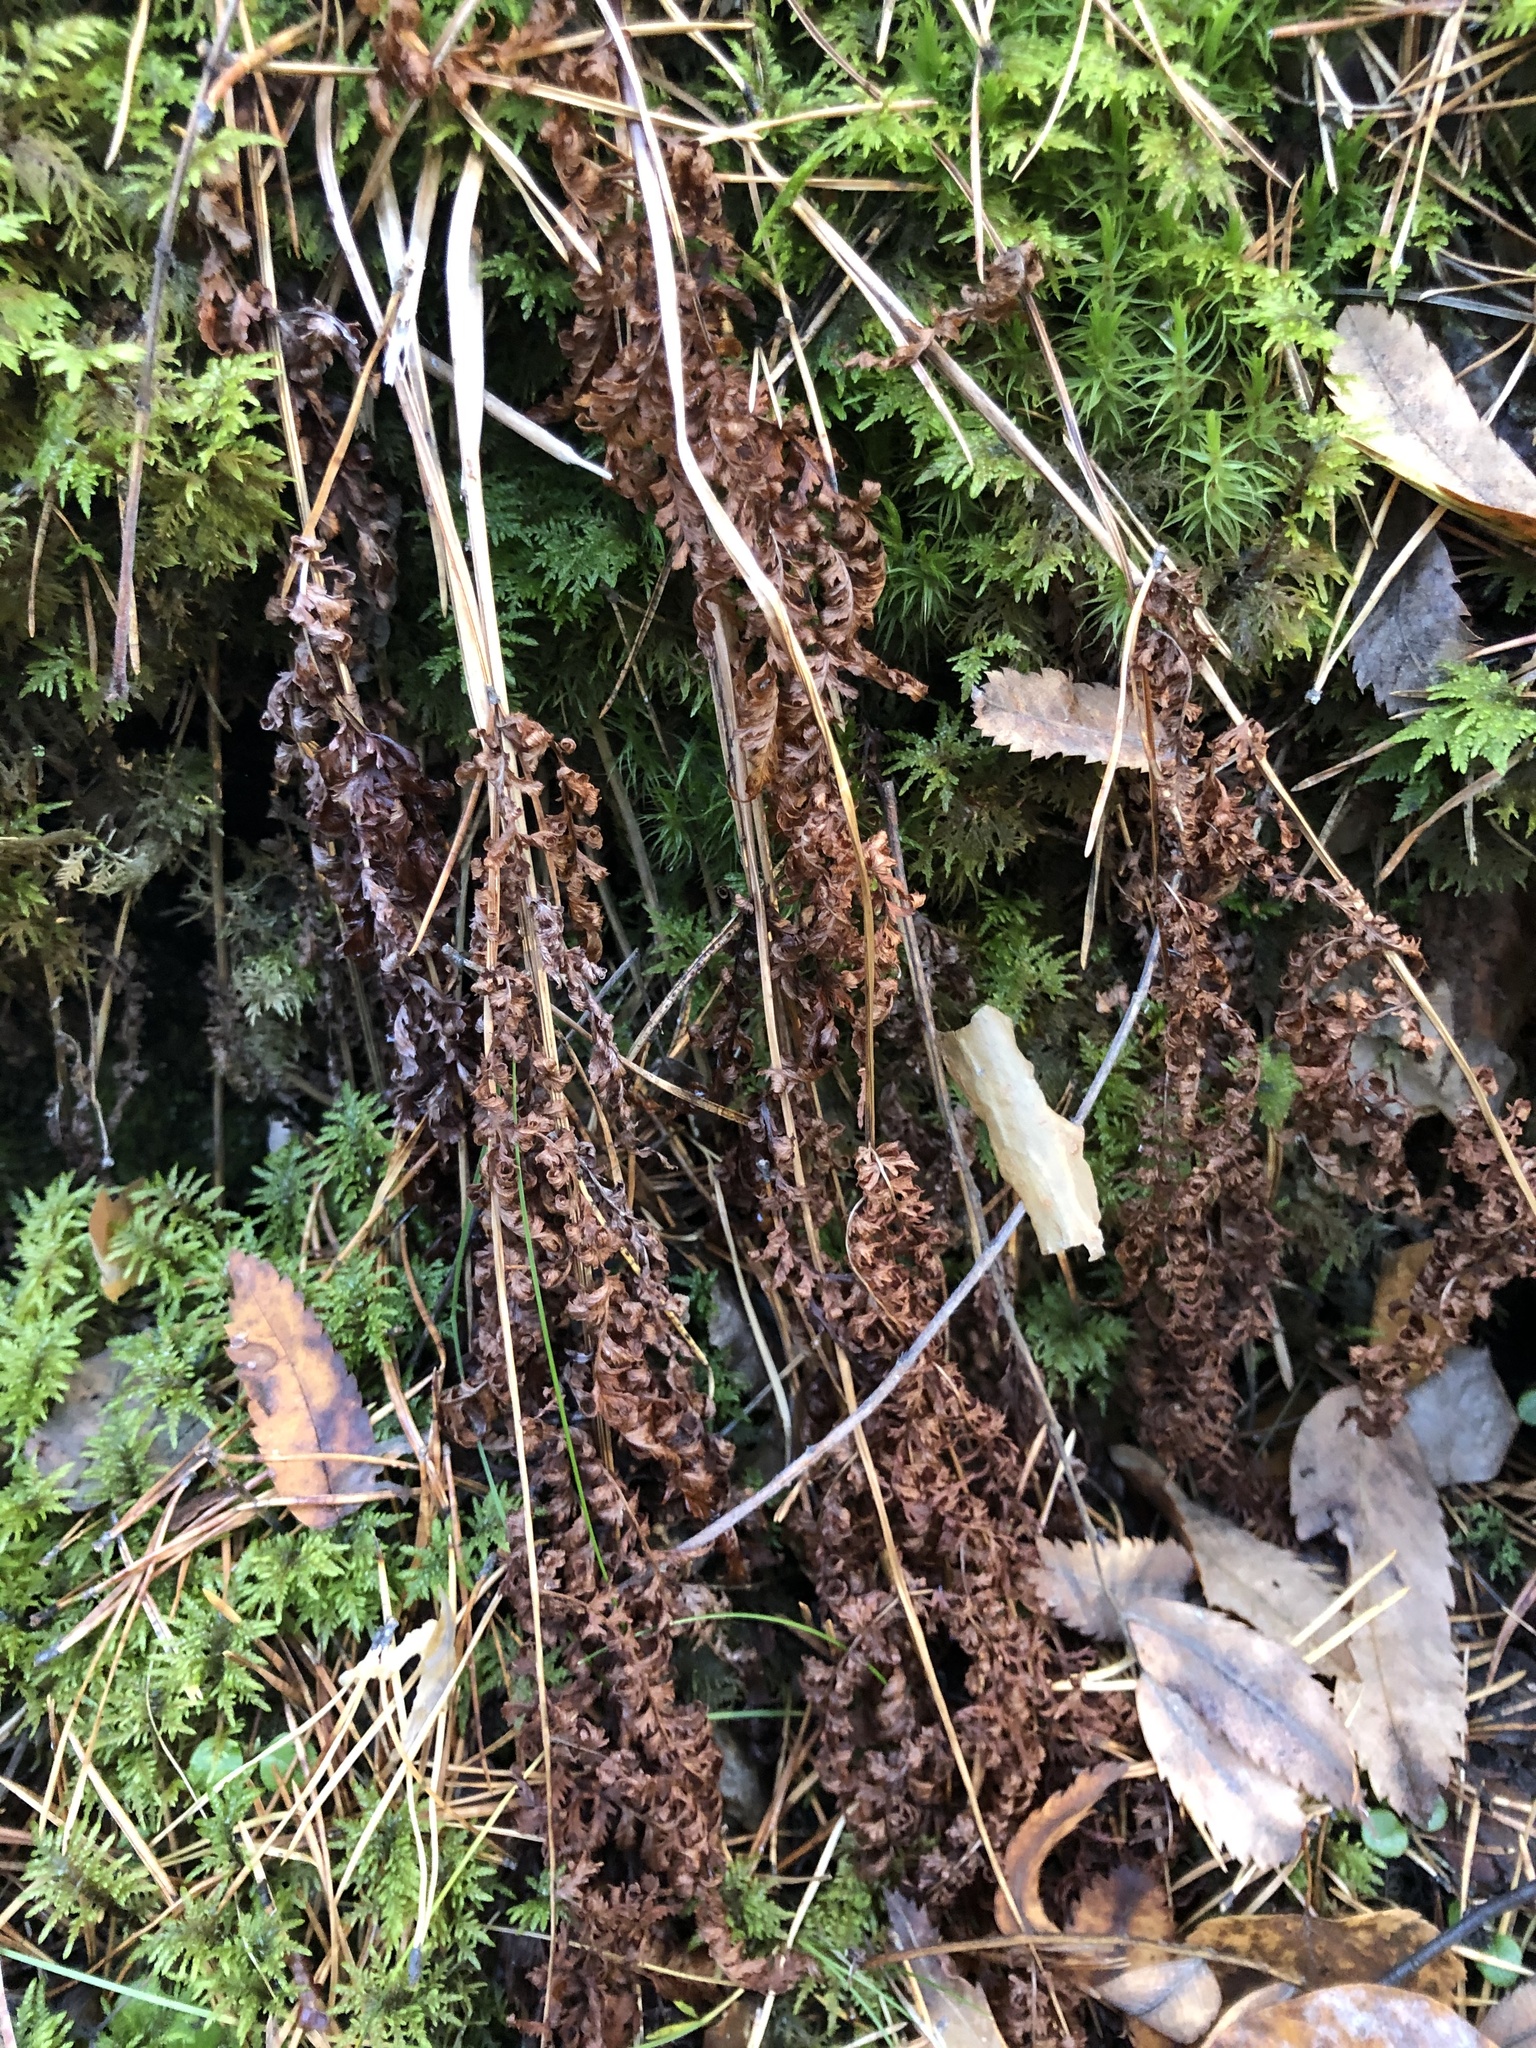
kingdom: Plantae
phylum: Tracheophyta
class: Polypodiopsida
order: Polypodiales
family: Cystopteridaceae
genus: Cystopteris
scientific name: Cystopteris fragilis
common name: Brittle bladder fern
